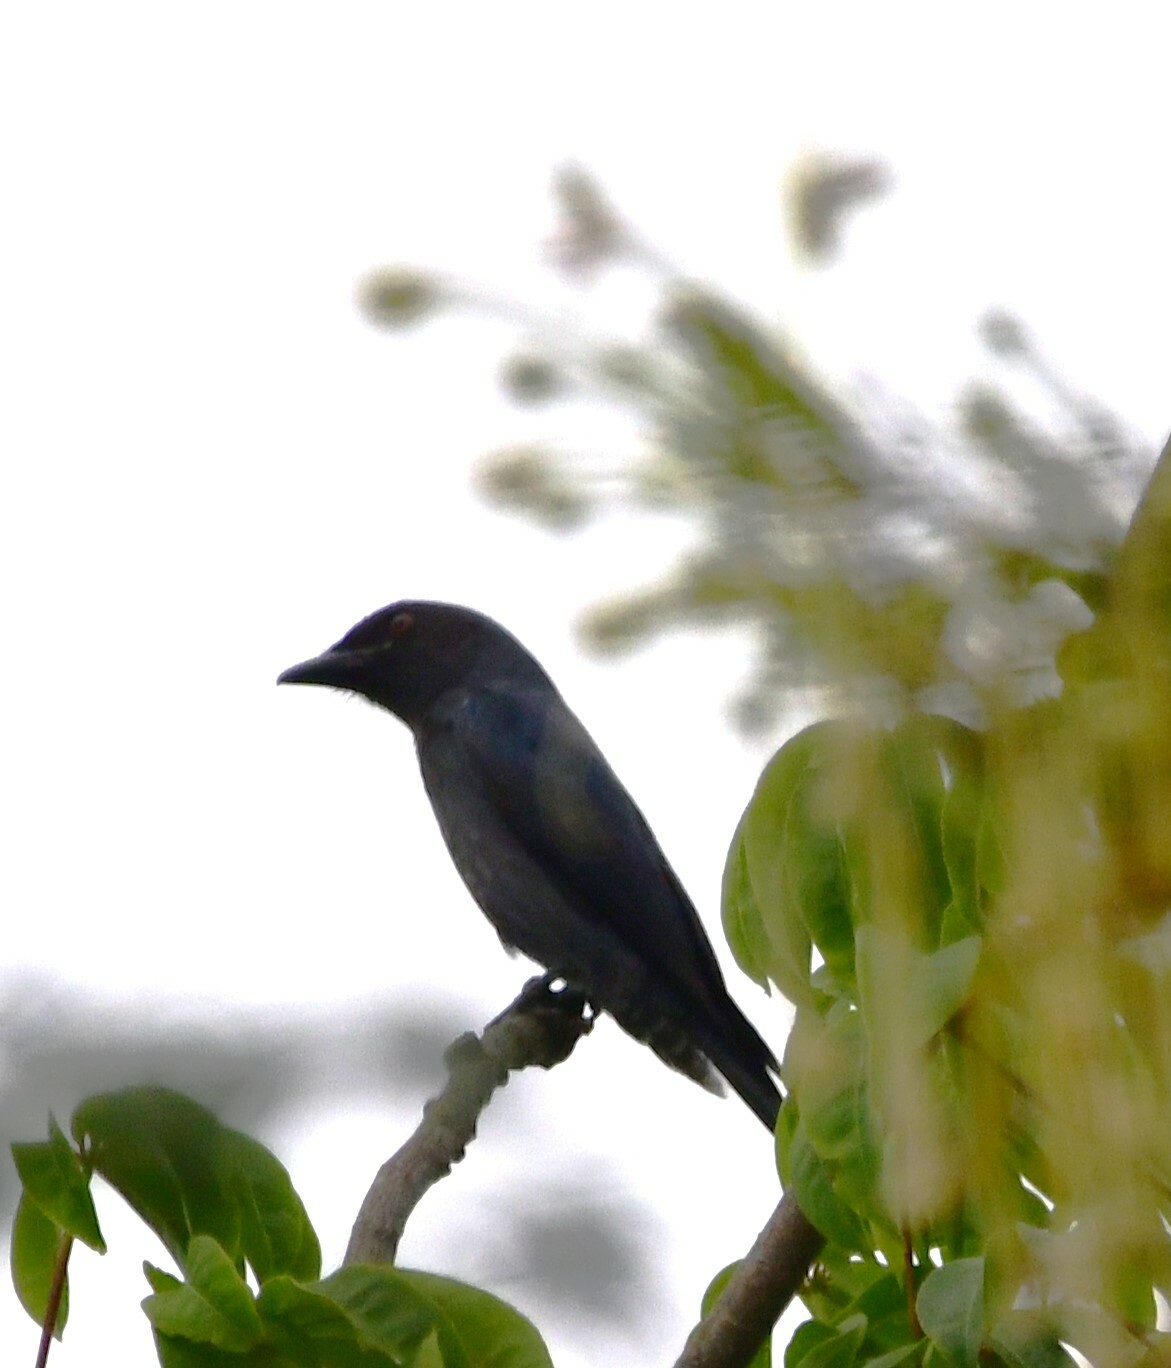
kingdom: Animalia
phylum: Chordata
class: Aves
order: Passeriformes
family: Dicruridae
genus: Dicrurus
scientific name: Dicrurus leucophaeus
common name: Ashy drongo
